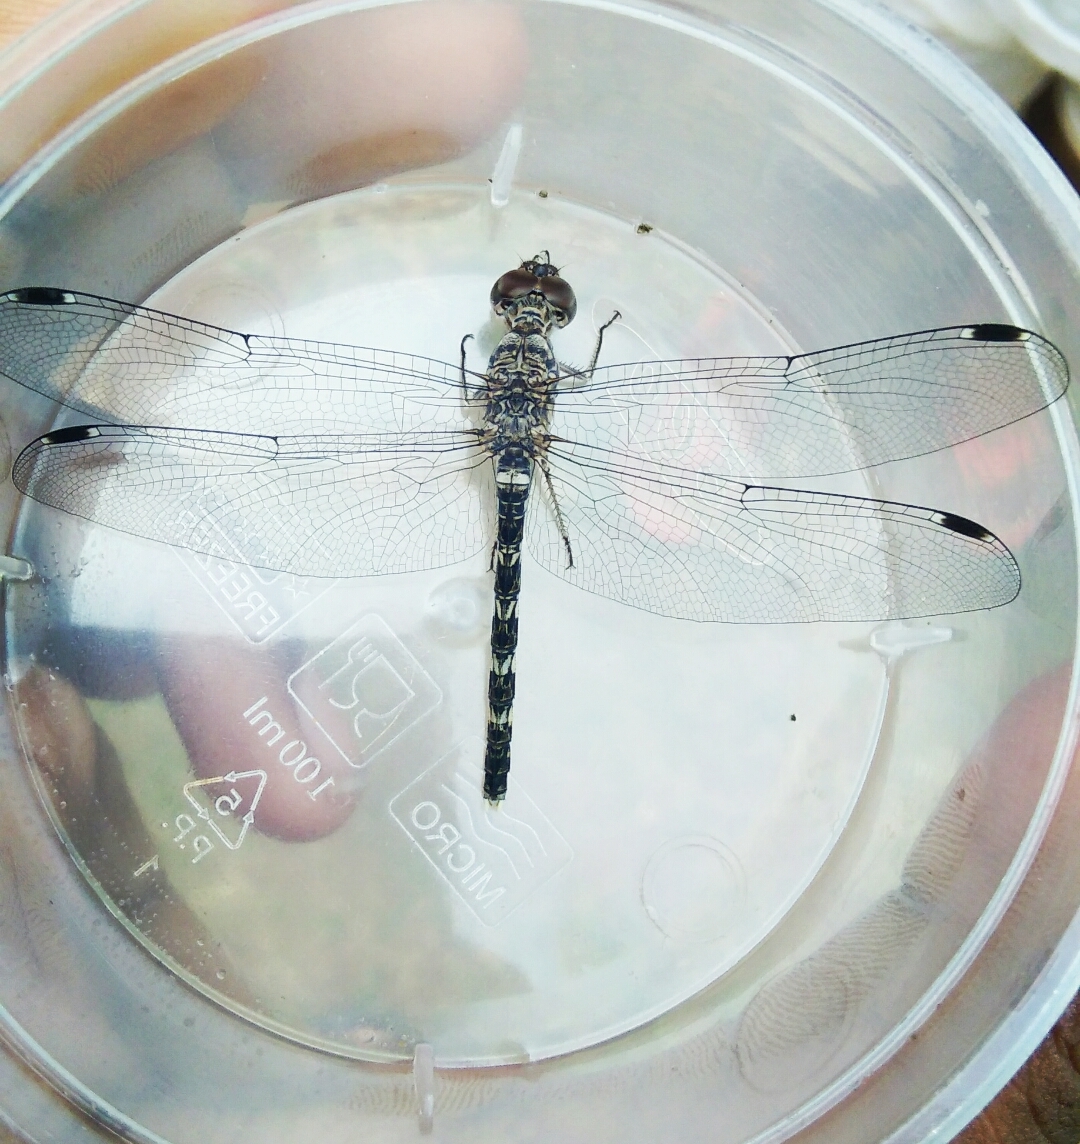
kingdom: Animalia
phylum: Arthropoda
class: Insecta
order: Odonata
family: Libellulidae
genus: Bradinopyga
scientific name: Bradinopyga geminata
